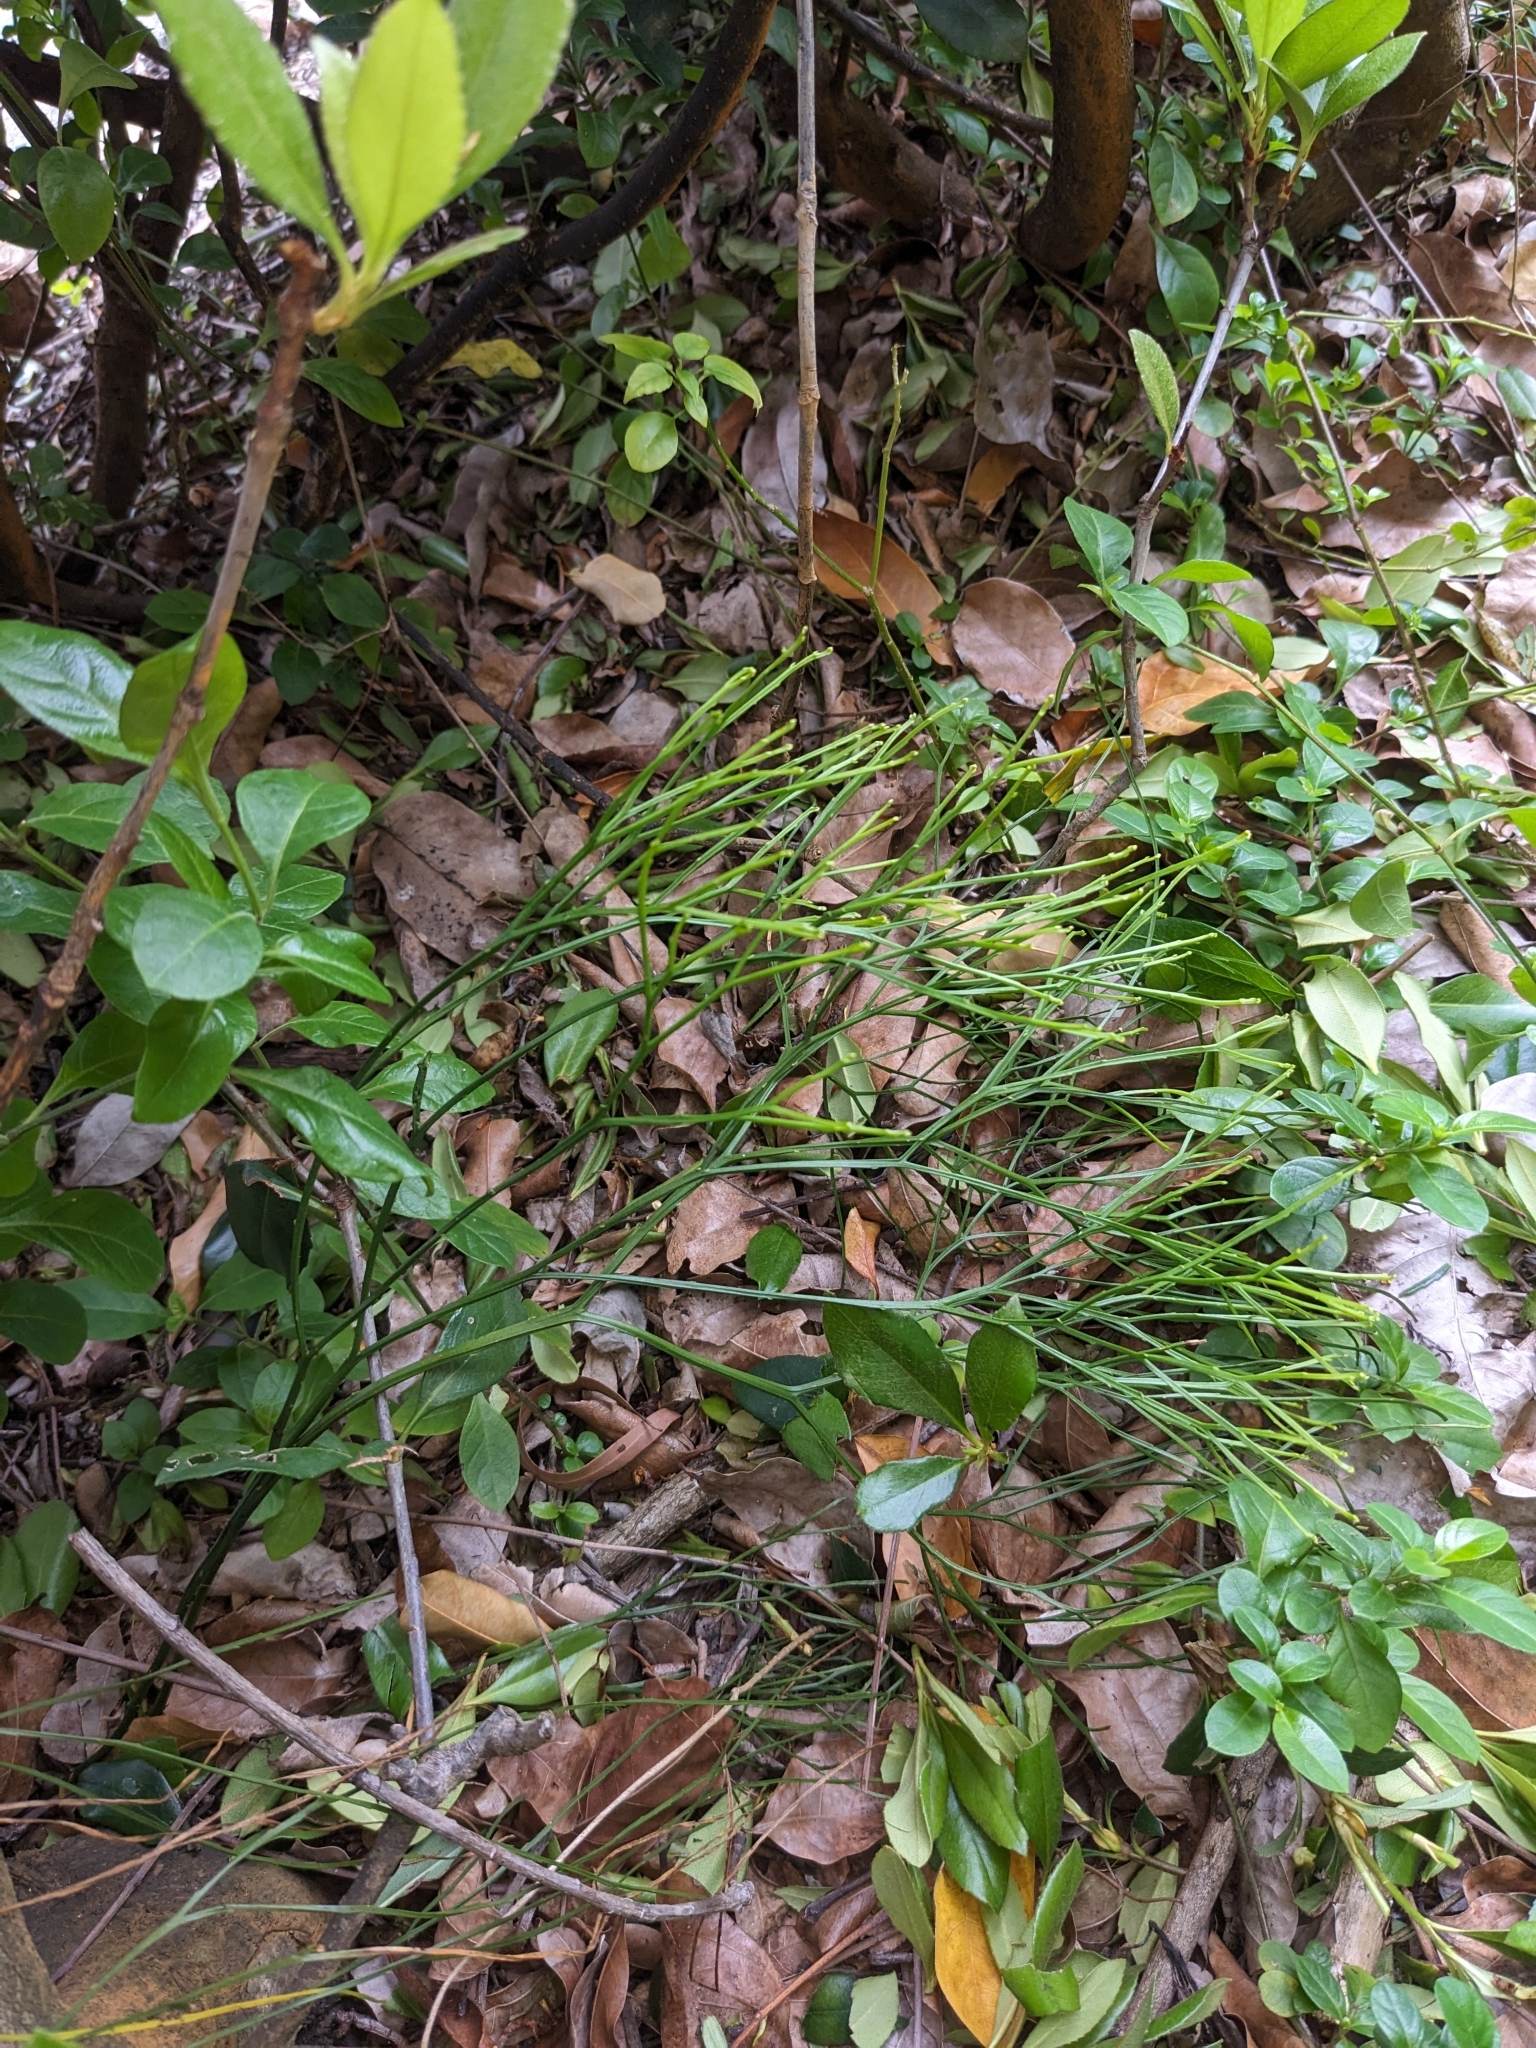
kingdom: Plantae
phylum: Tracheophyta
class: Polypodiopsida
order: Psilotales
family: Psilotaceae
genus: Psilotum
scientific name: Psilotum nudum
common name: Skeleton fork fern
